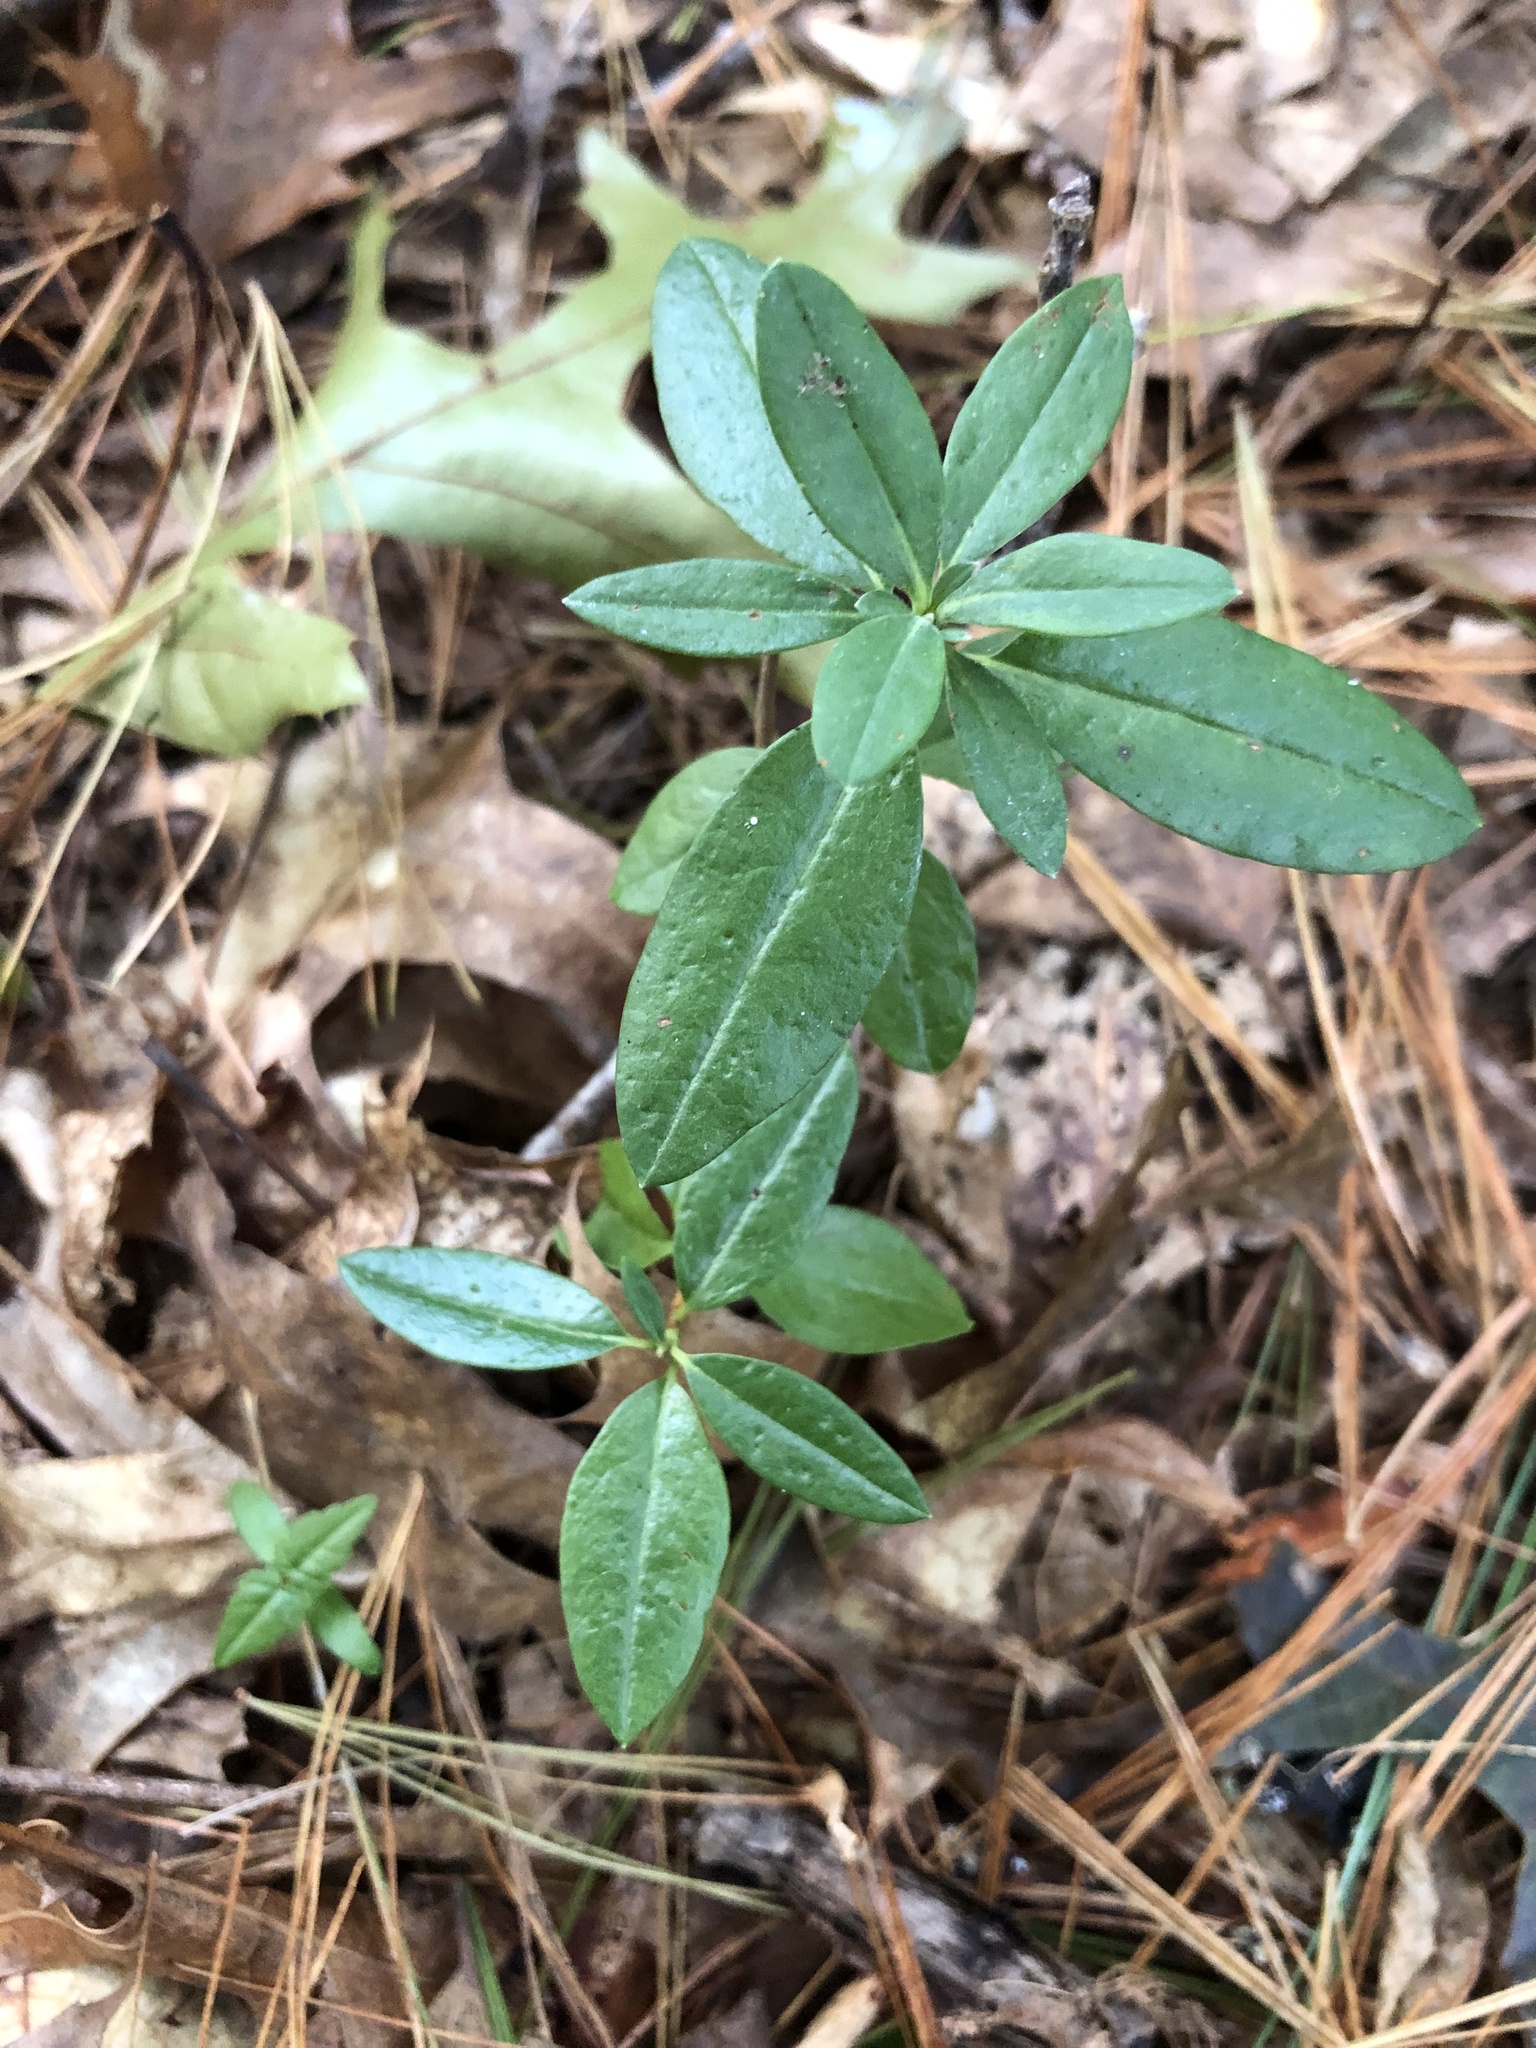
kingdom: Plantae
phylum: Tracheophyta
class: Magnoliopsida
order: Ericales
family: Ericaceae
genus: Kalmia
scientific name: Kalmia angustifolia
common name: Sheep-laurel
